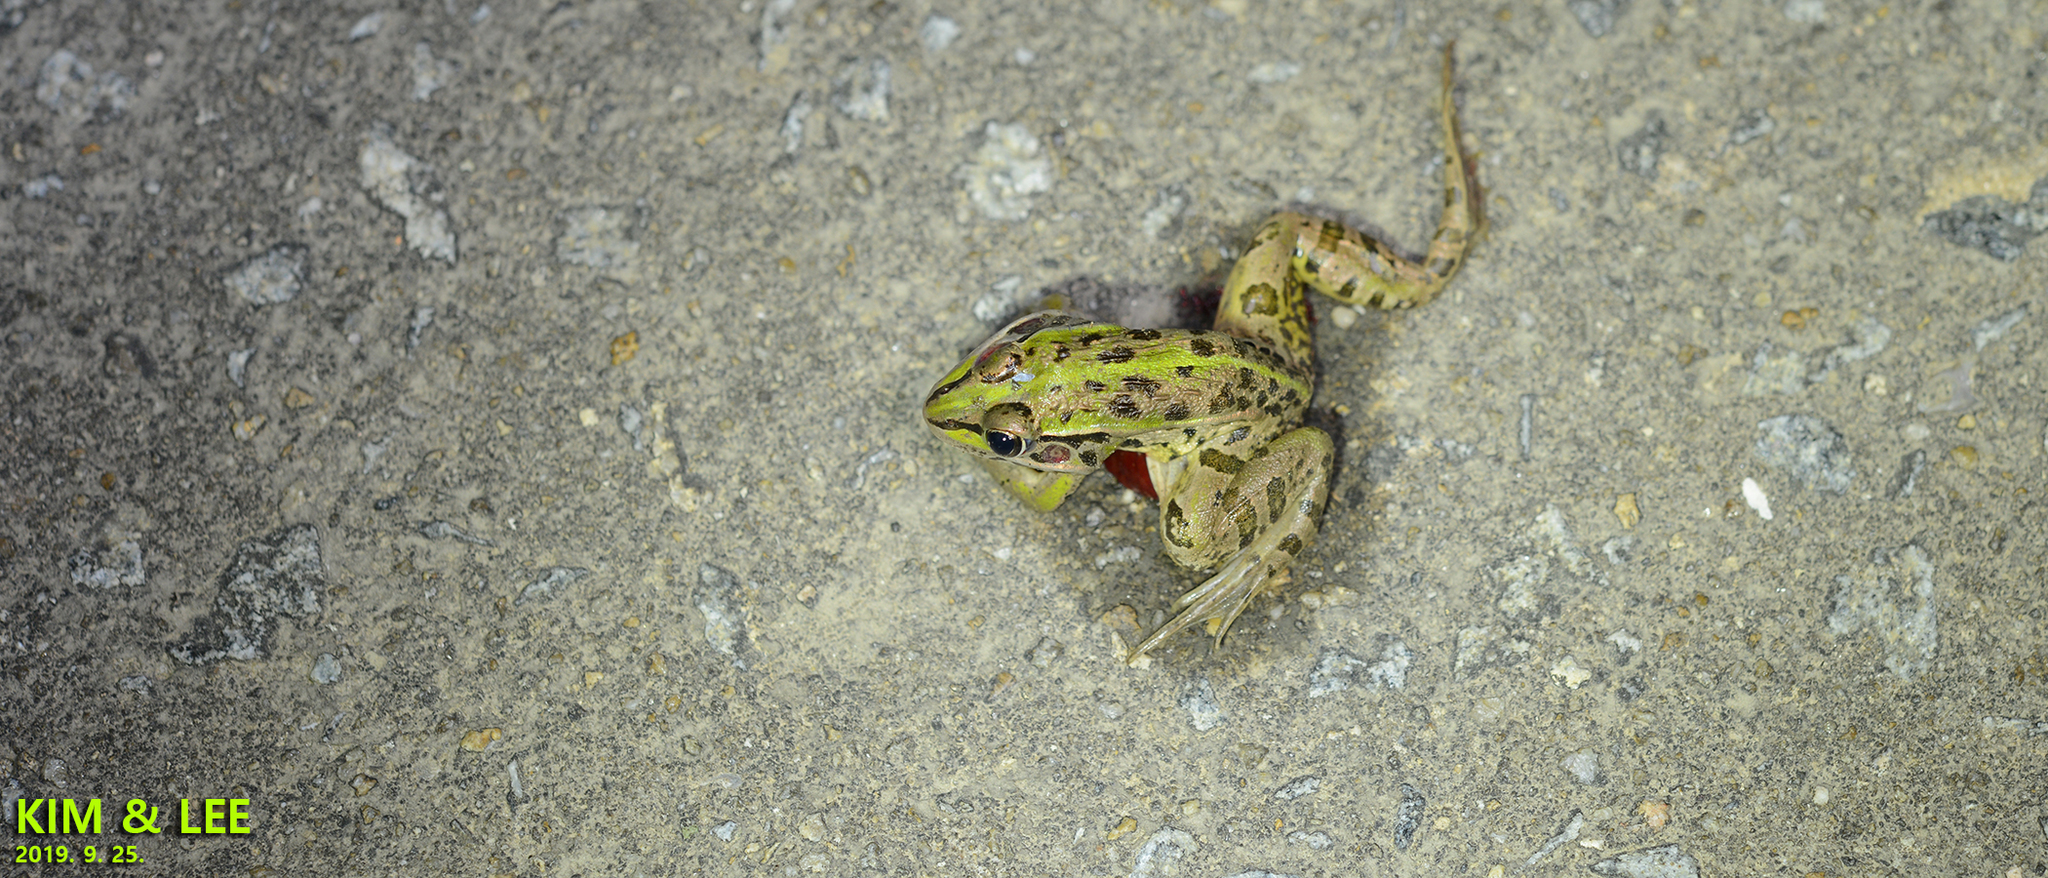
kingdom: Animalia
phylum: Chordata
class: Amphibia
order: Anura
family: Ranidae
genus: Pelophylax
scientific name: Pelophylax nigromaculatus
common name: Black-spotted pond frog
